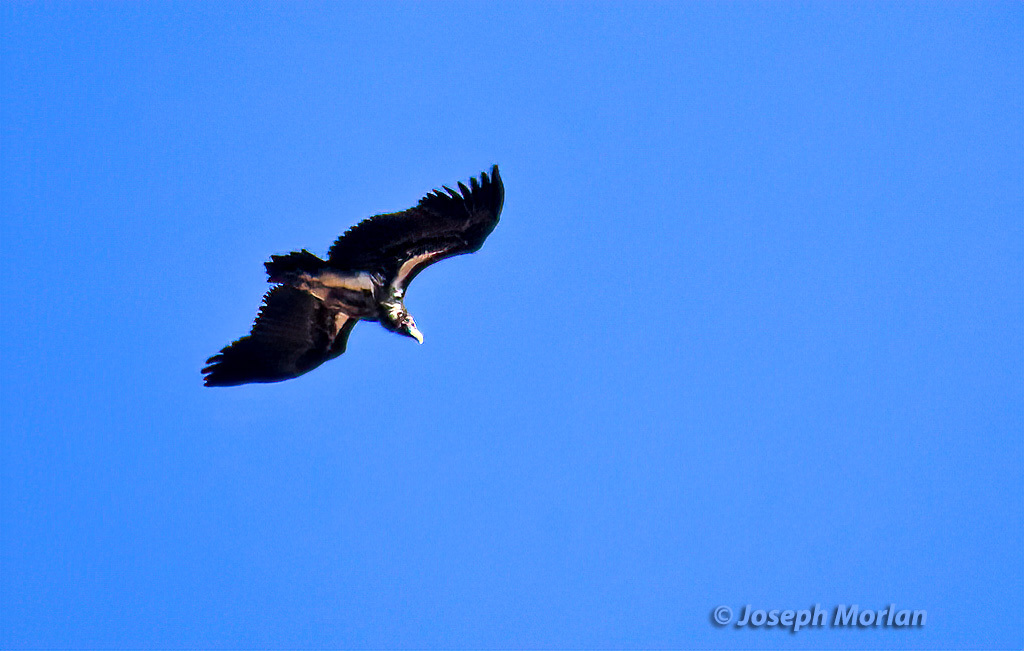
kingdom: Animalia
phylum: Chordata
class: Aves
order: Accipitriformes
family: Accipitridae
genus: Torgos
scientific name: Torgos tracheliotos
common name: Lappet-faced vulture
